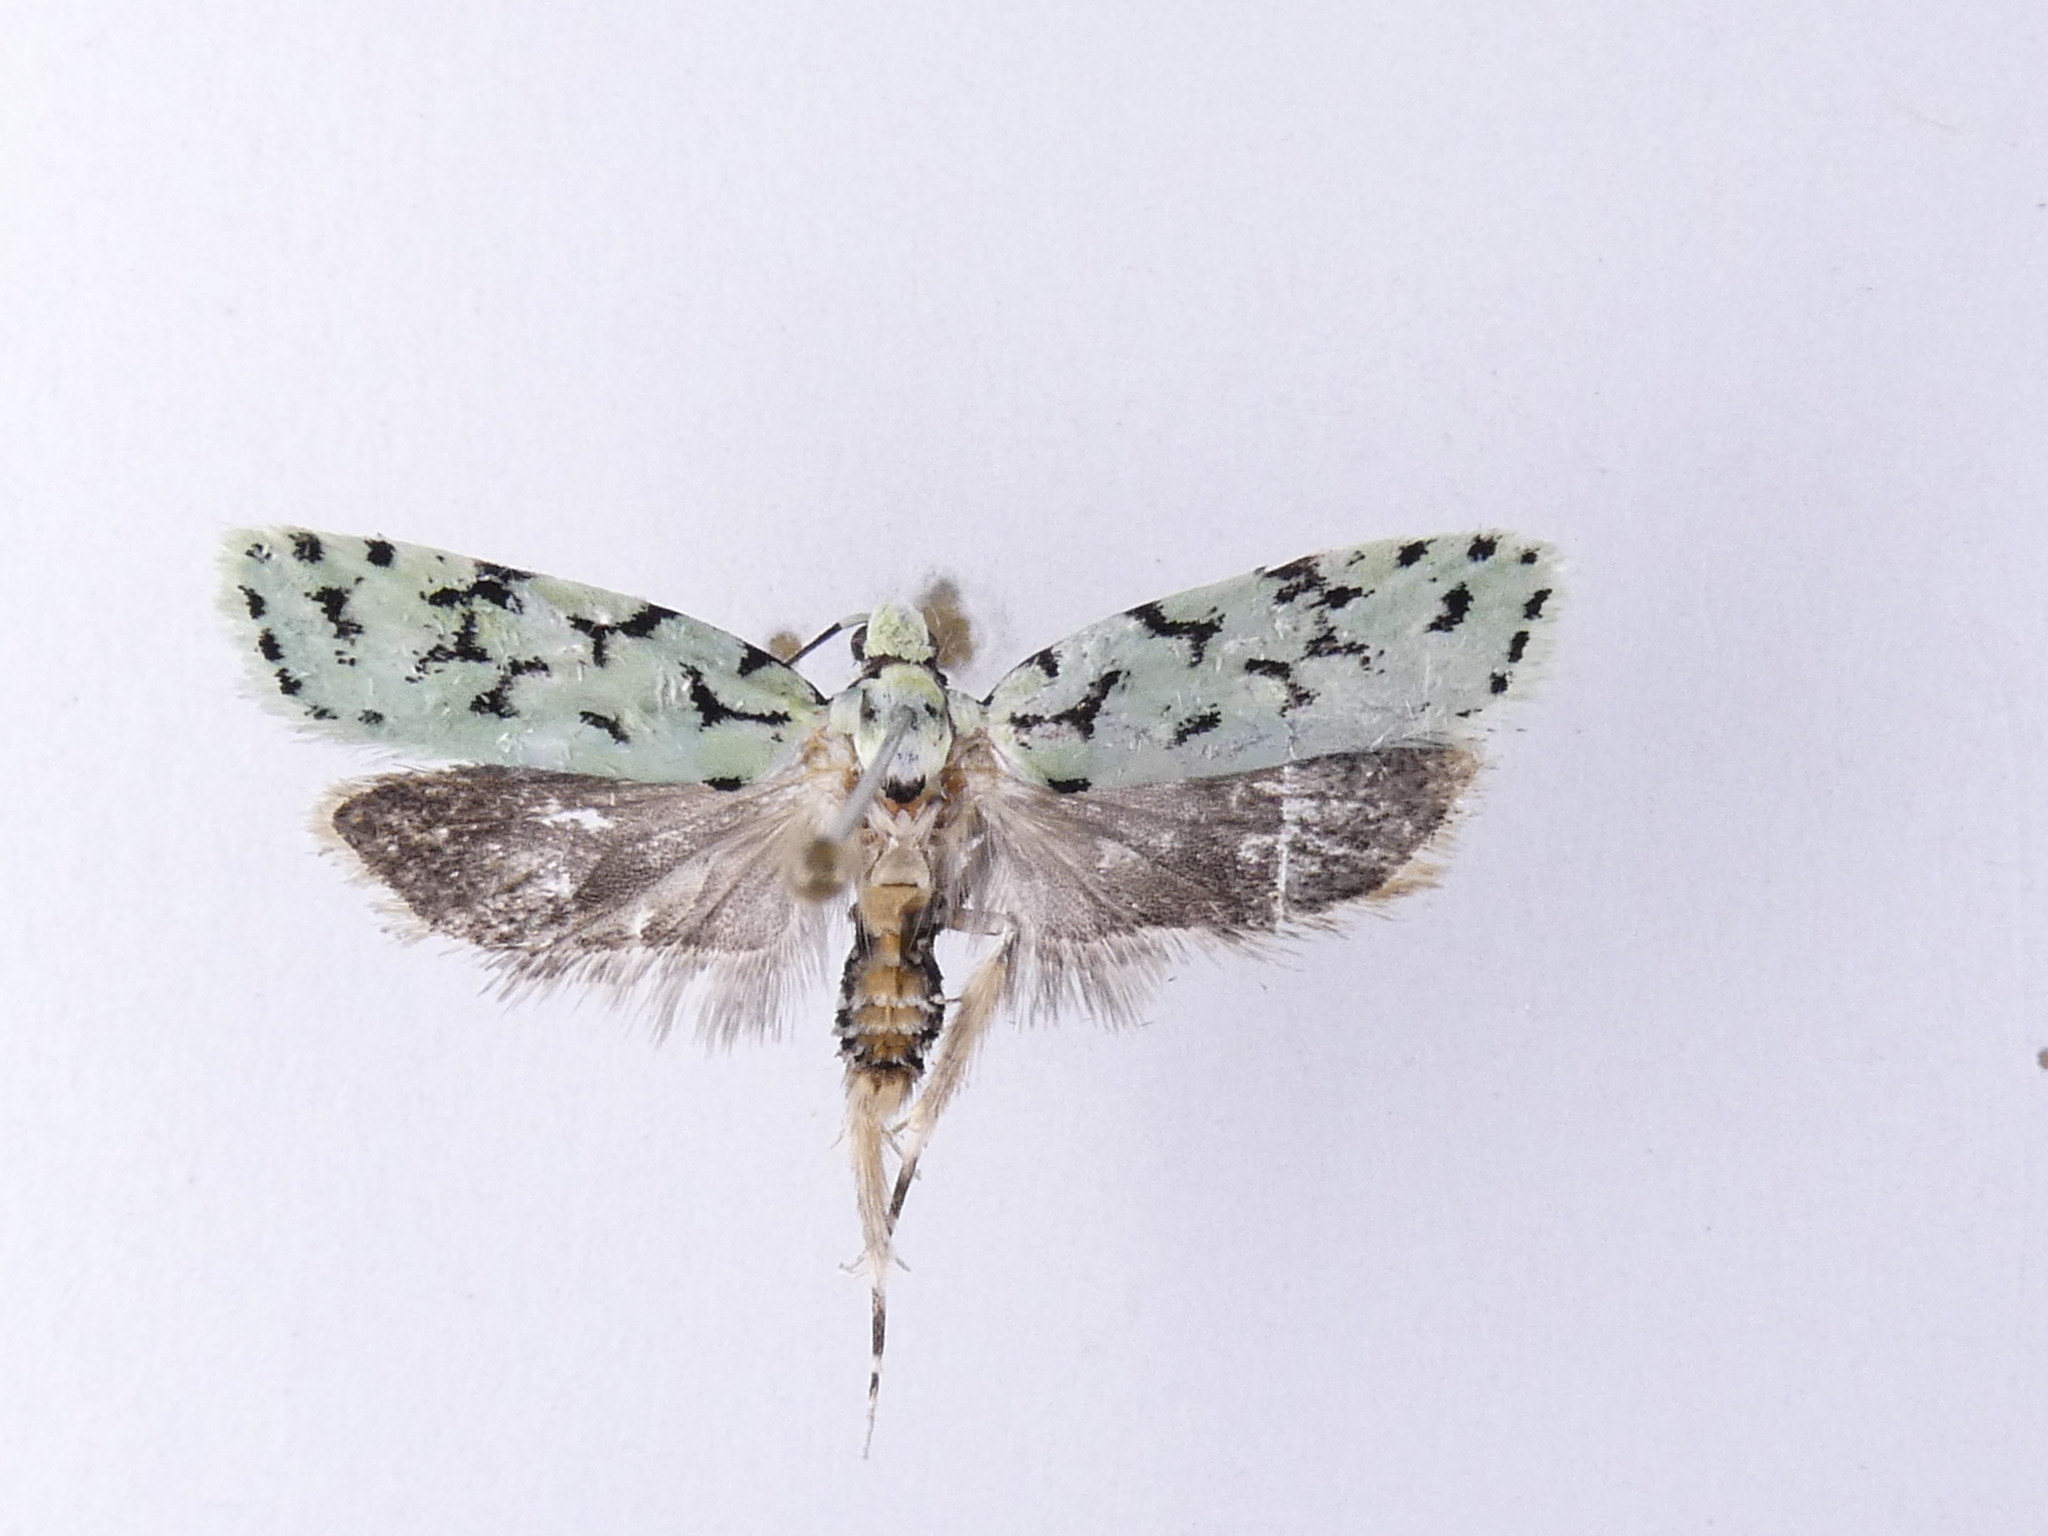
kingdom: Animalia
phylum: Arthropoda
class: Insecta
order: Lepidoptera
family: Oecophoridae
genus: Izatha
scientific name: Izatha huttoni
